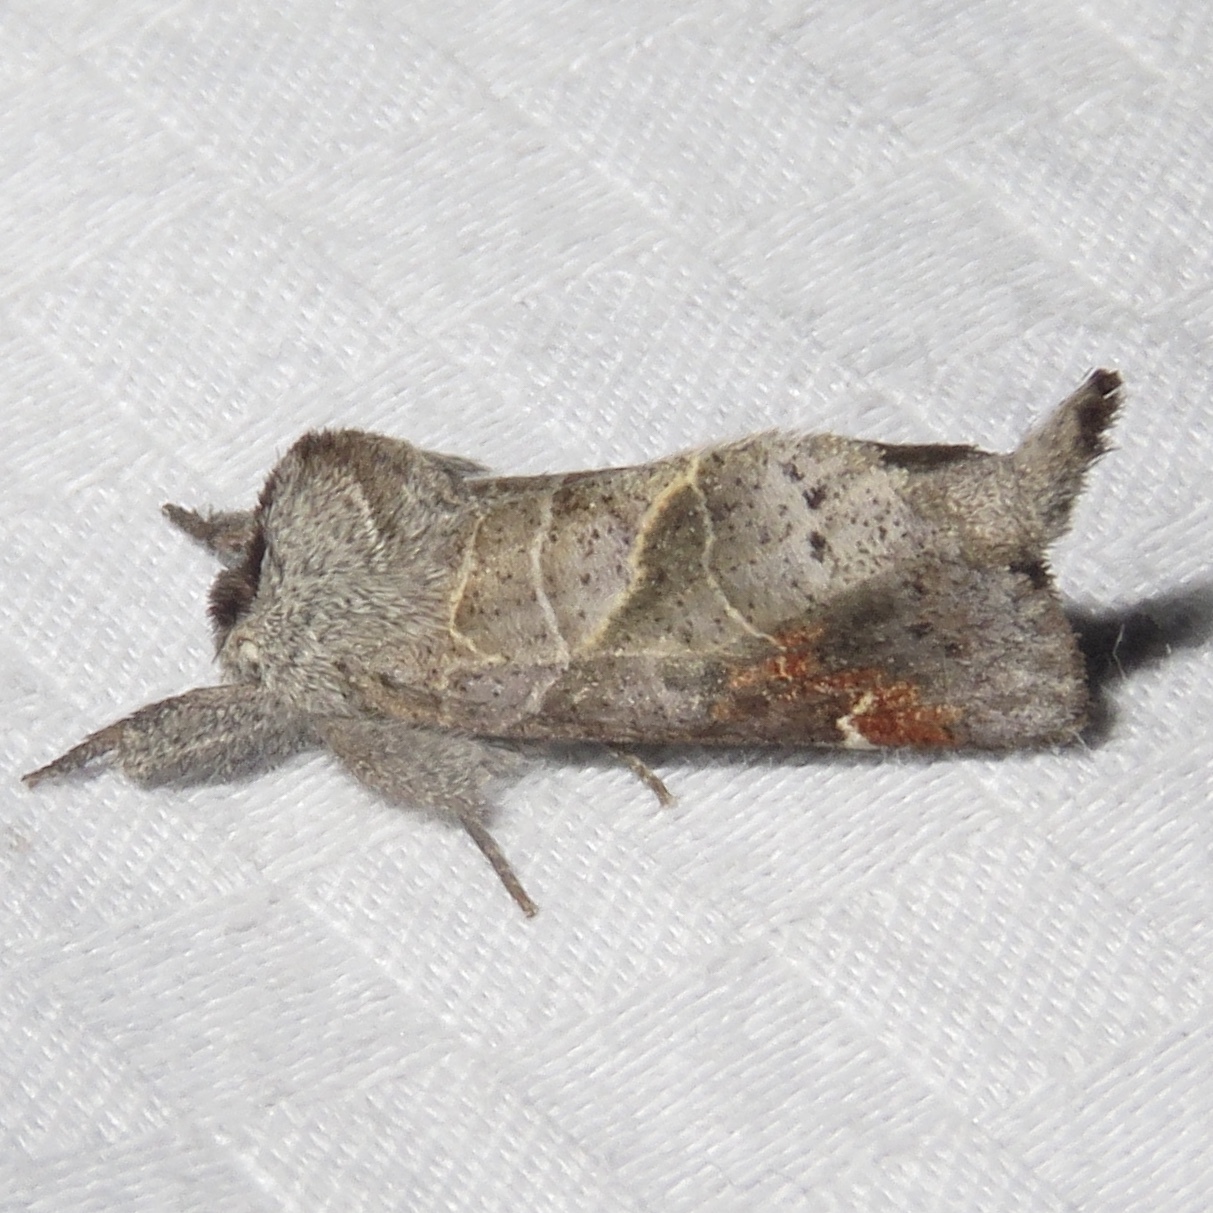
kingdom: Animalia
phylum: Arthropoda
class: Insecta
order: Lepidoptera
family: Notodontidae
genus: Clostera
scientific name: Clostera apicalis
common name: Apical prominent
